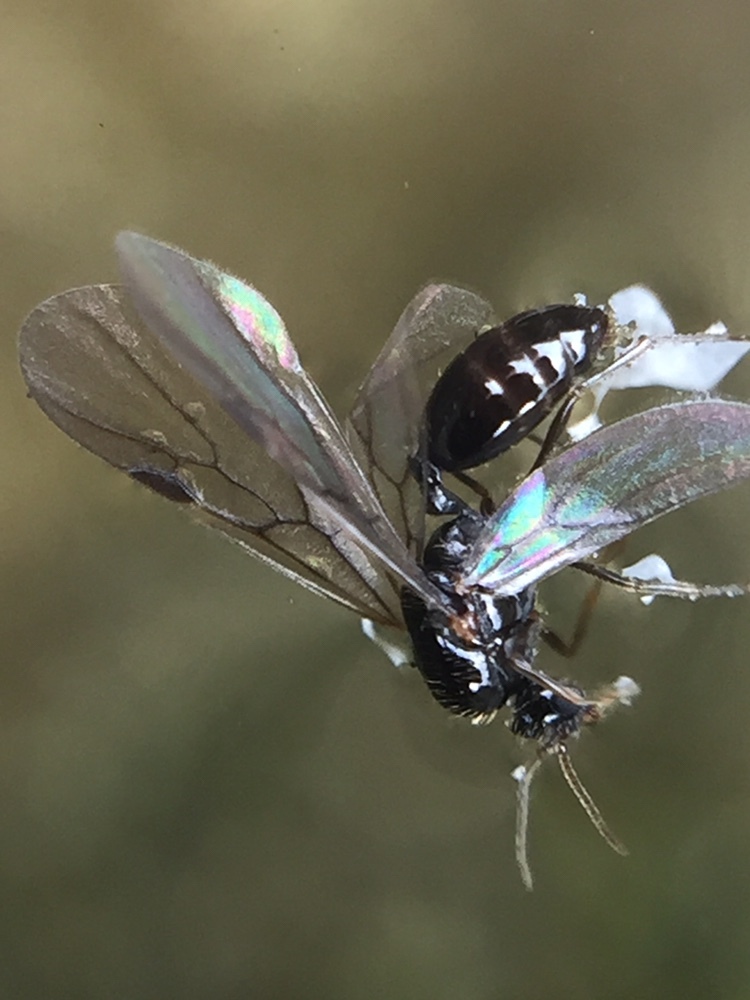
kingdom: Animalia
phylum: Arthropoda
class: Insecta
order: Hymenoptera
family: Formicidae
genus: Solenopsis
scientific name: Solenopsis
